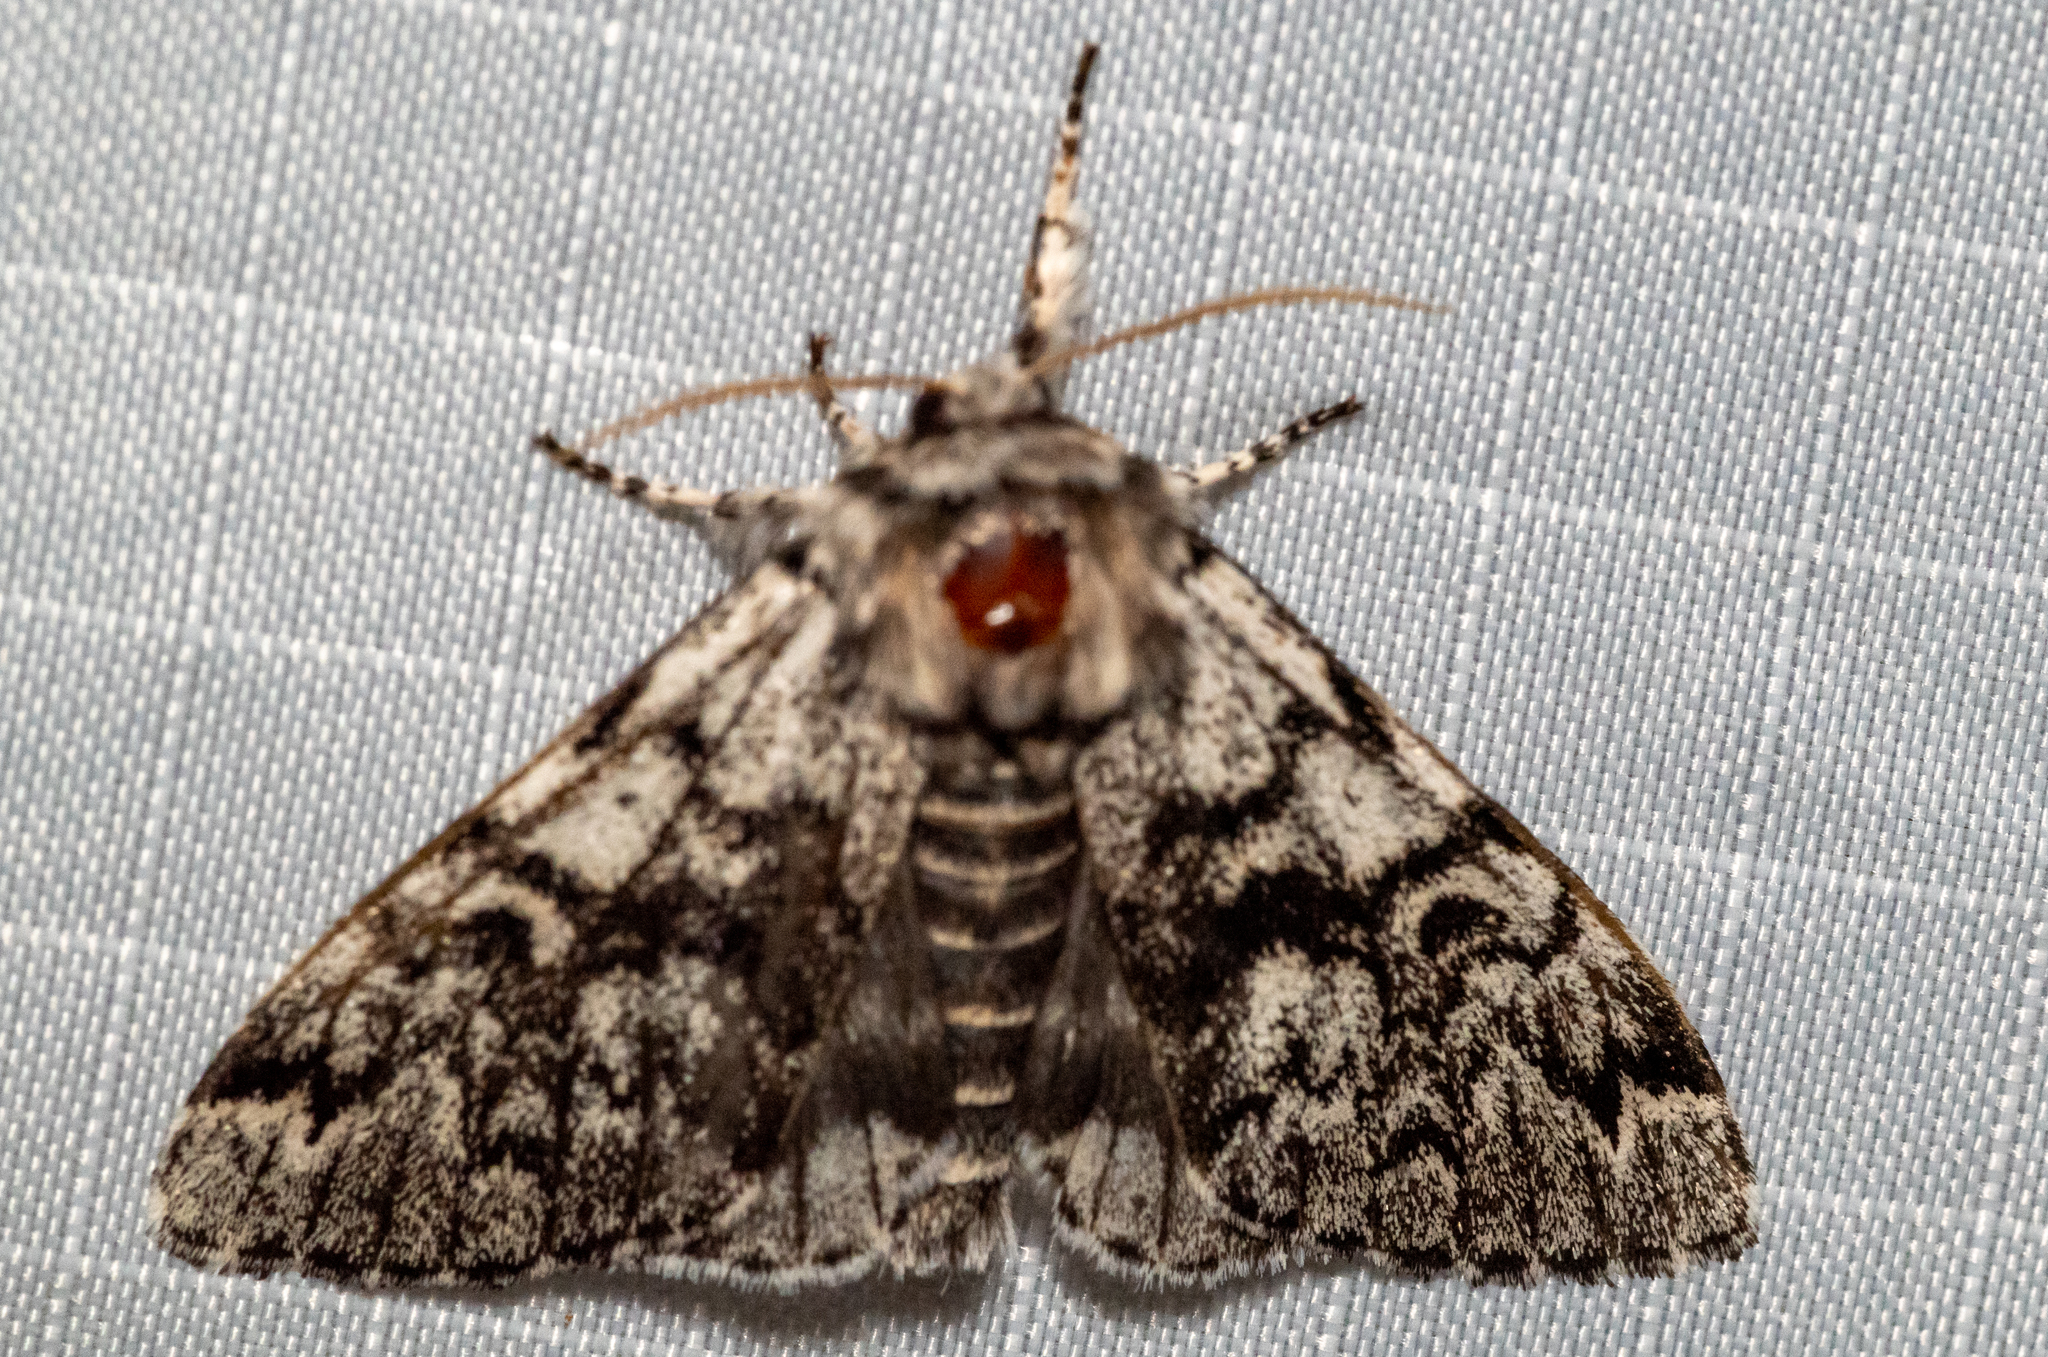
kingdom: Animalia
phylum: Arthropoda
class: Insecta
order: Lepidoptera
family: Noctuidae
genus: Panthea
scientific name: Panthea acronyctoides
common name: Black zigzag moth
